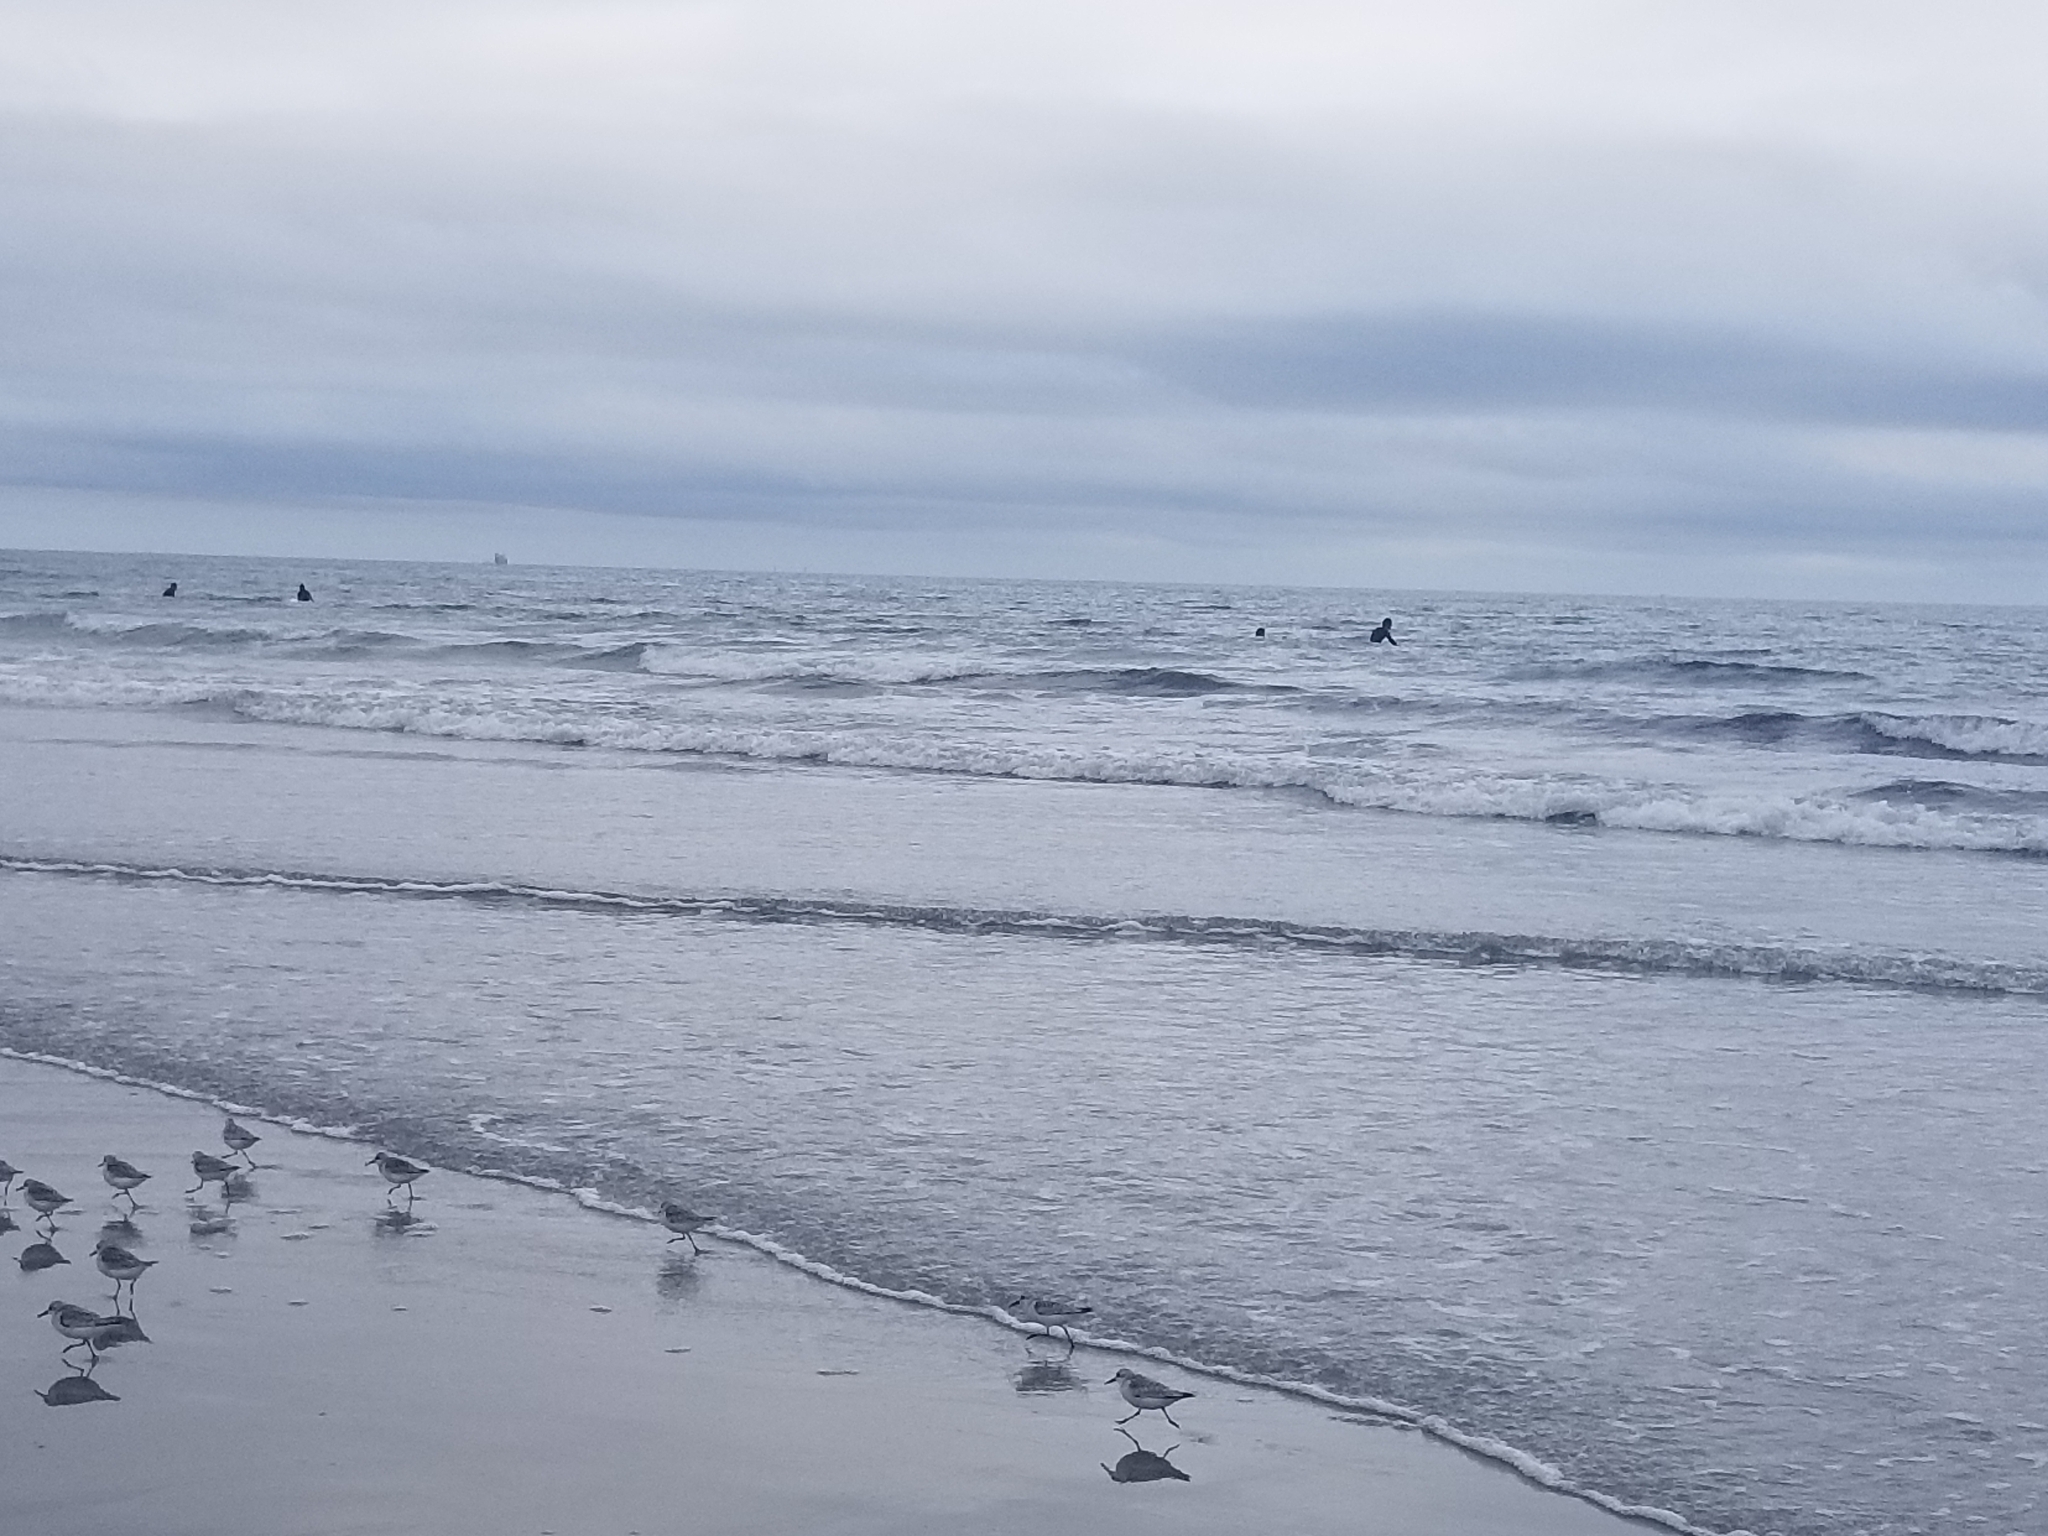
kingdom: Animalia
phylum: Chordata
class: Aves
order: Charadriiformes
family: Scolopacidae
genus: Calidris
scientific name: Calidris alba
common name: Sanderling
